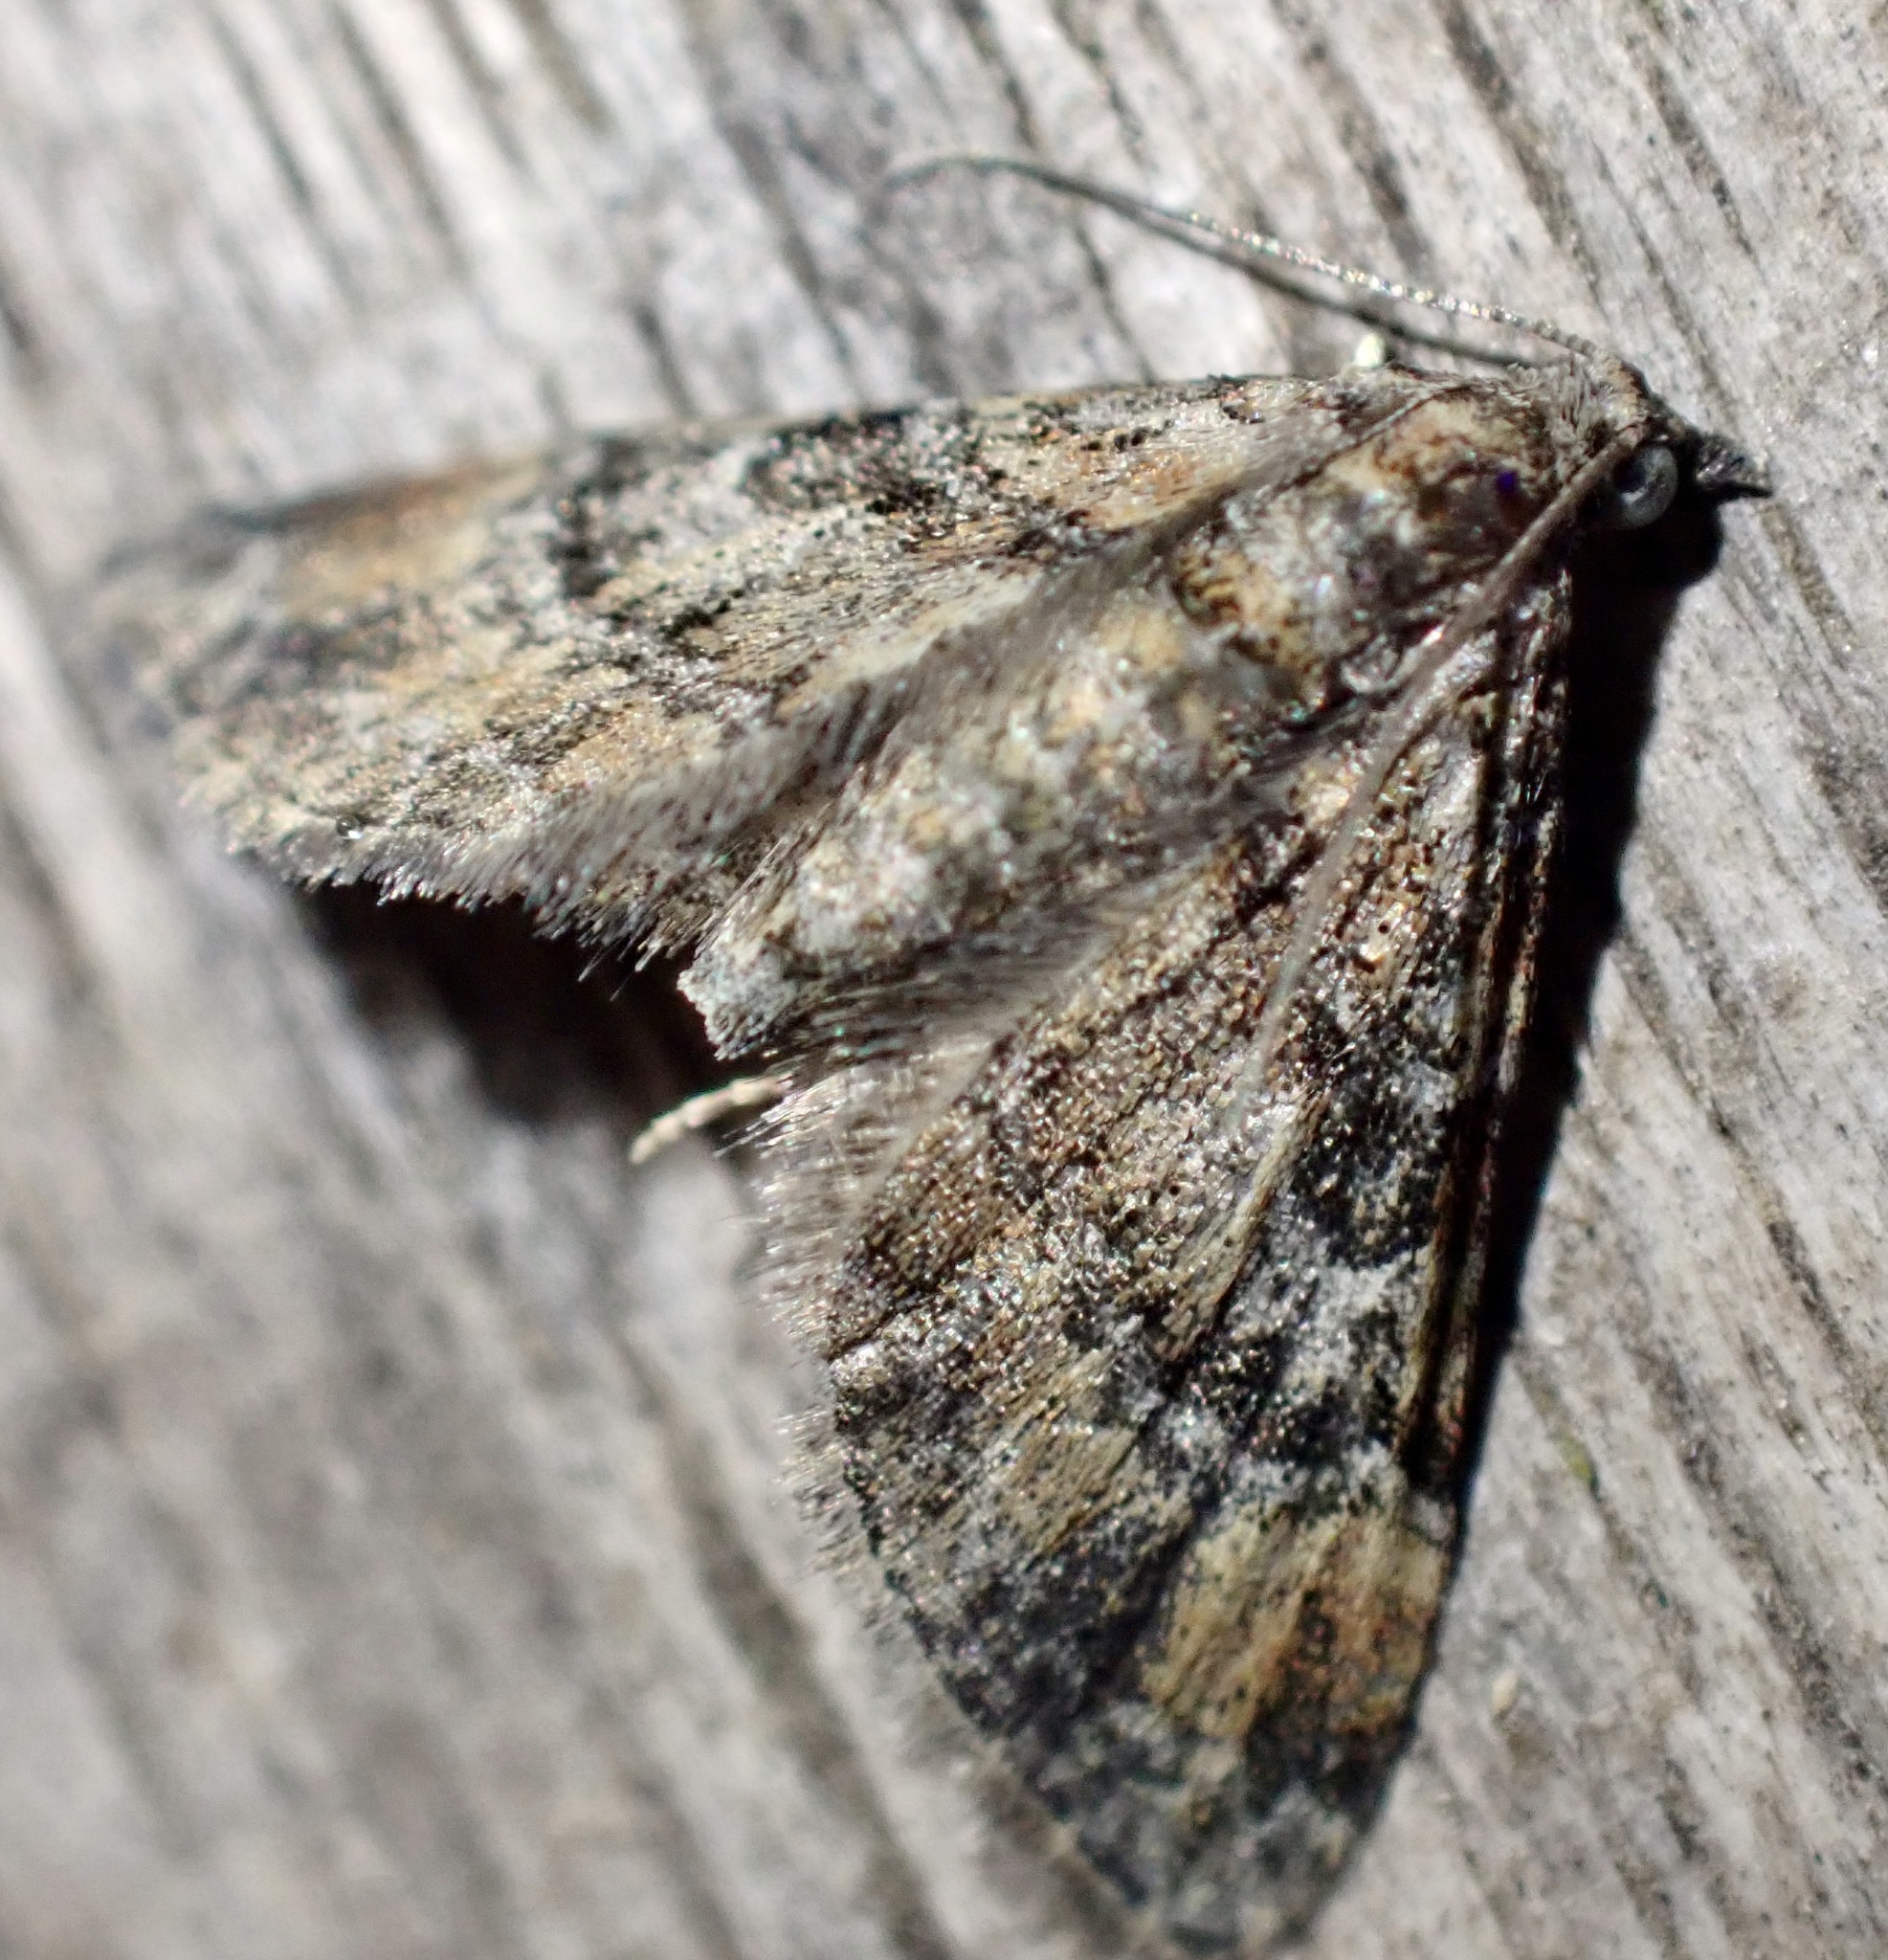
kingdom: Animalia
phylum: Arthropoda
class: Insecta
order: Lepidoptera
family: Geometridae
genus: Gymnoscelis
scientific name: Gymnoscelis rufifasciata
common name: Double-striped pug
